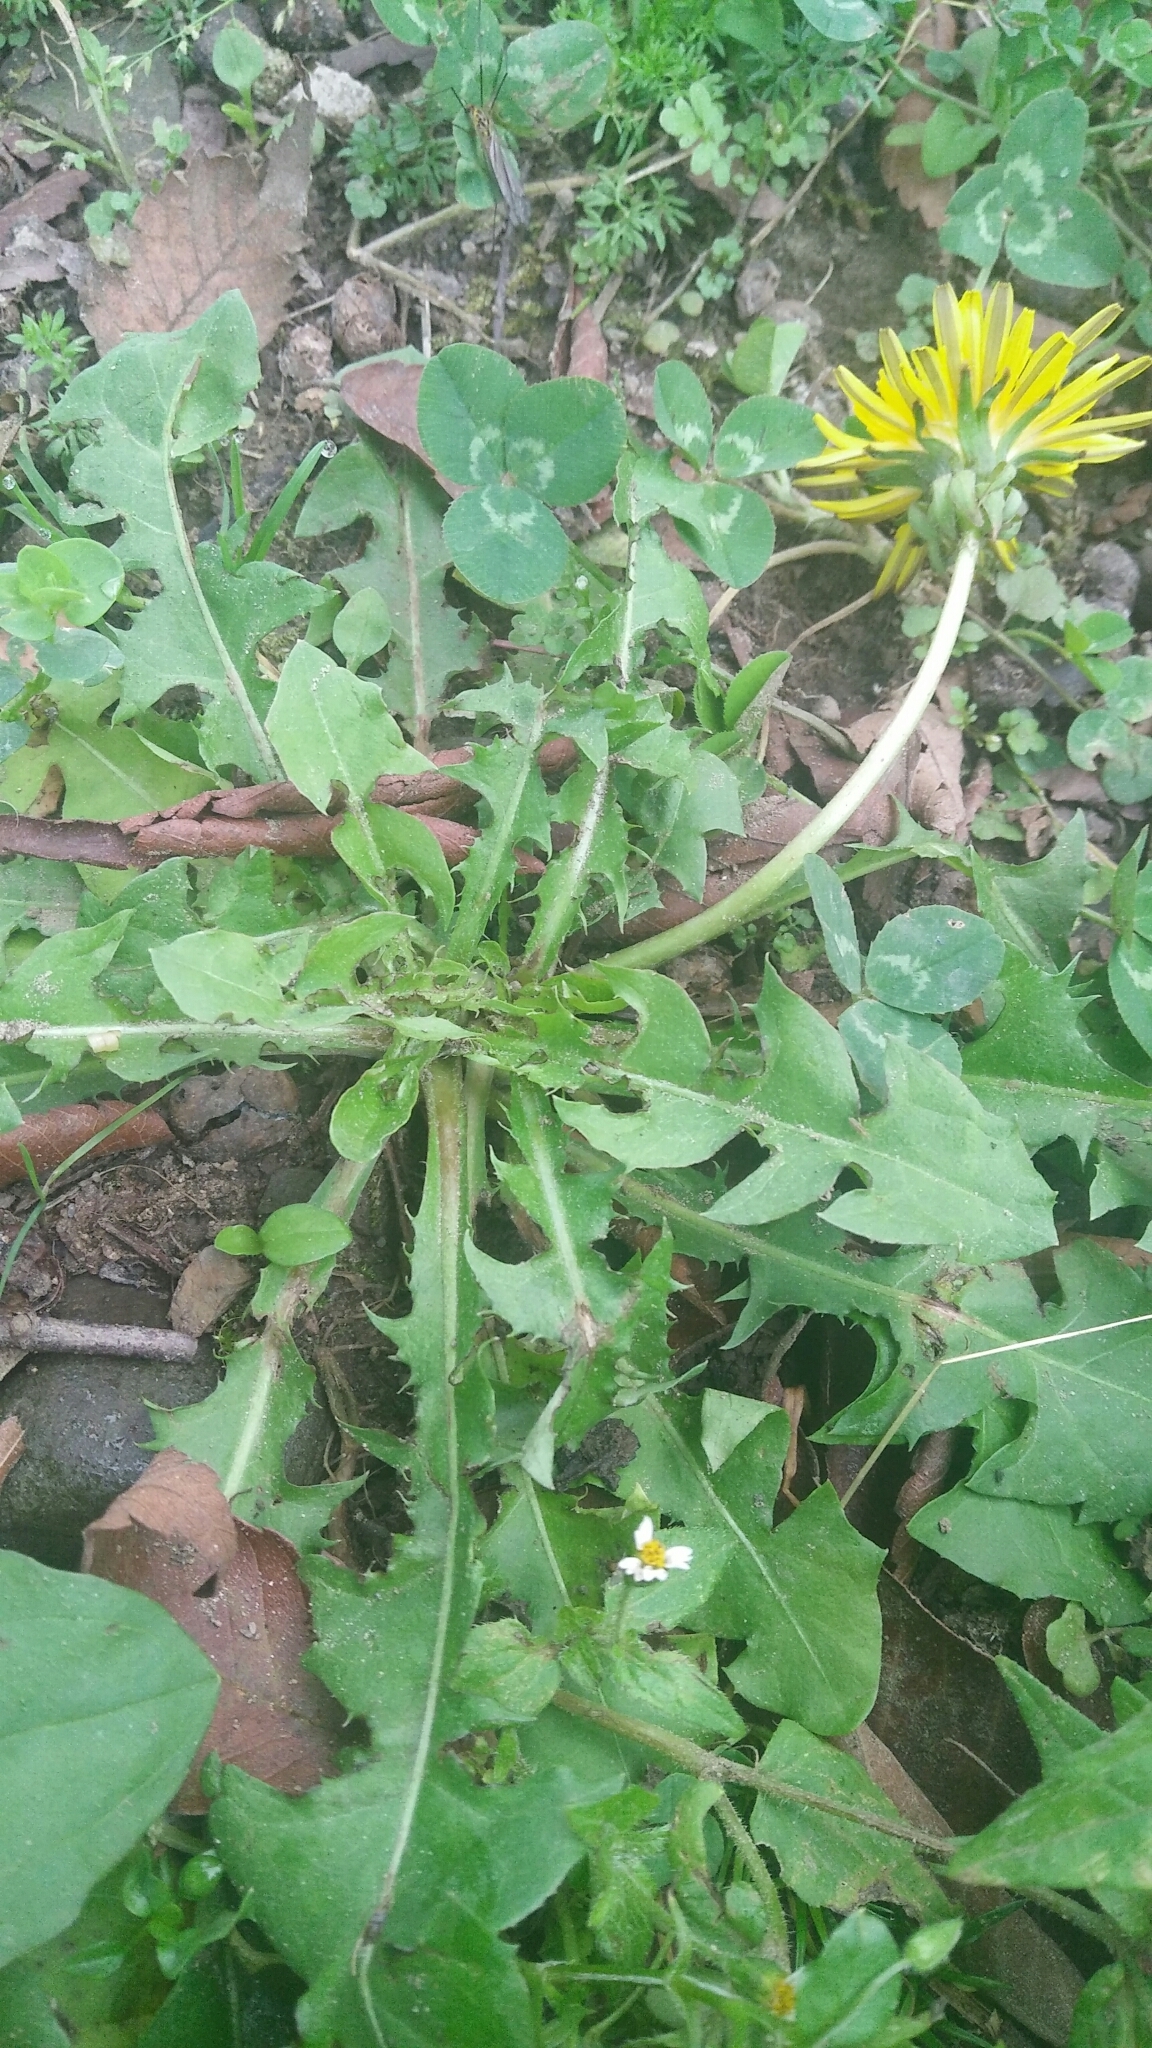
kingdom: Plantae
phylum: Tracheophyta
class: Magnoliopsida
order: Asterales
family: Asteraceae
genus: Taraxacum
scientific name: Taraxacum officinale
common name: Common dandelion
